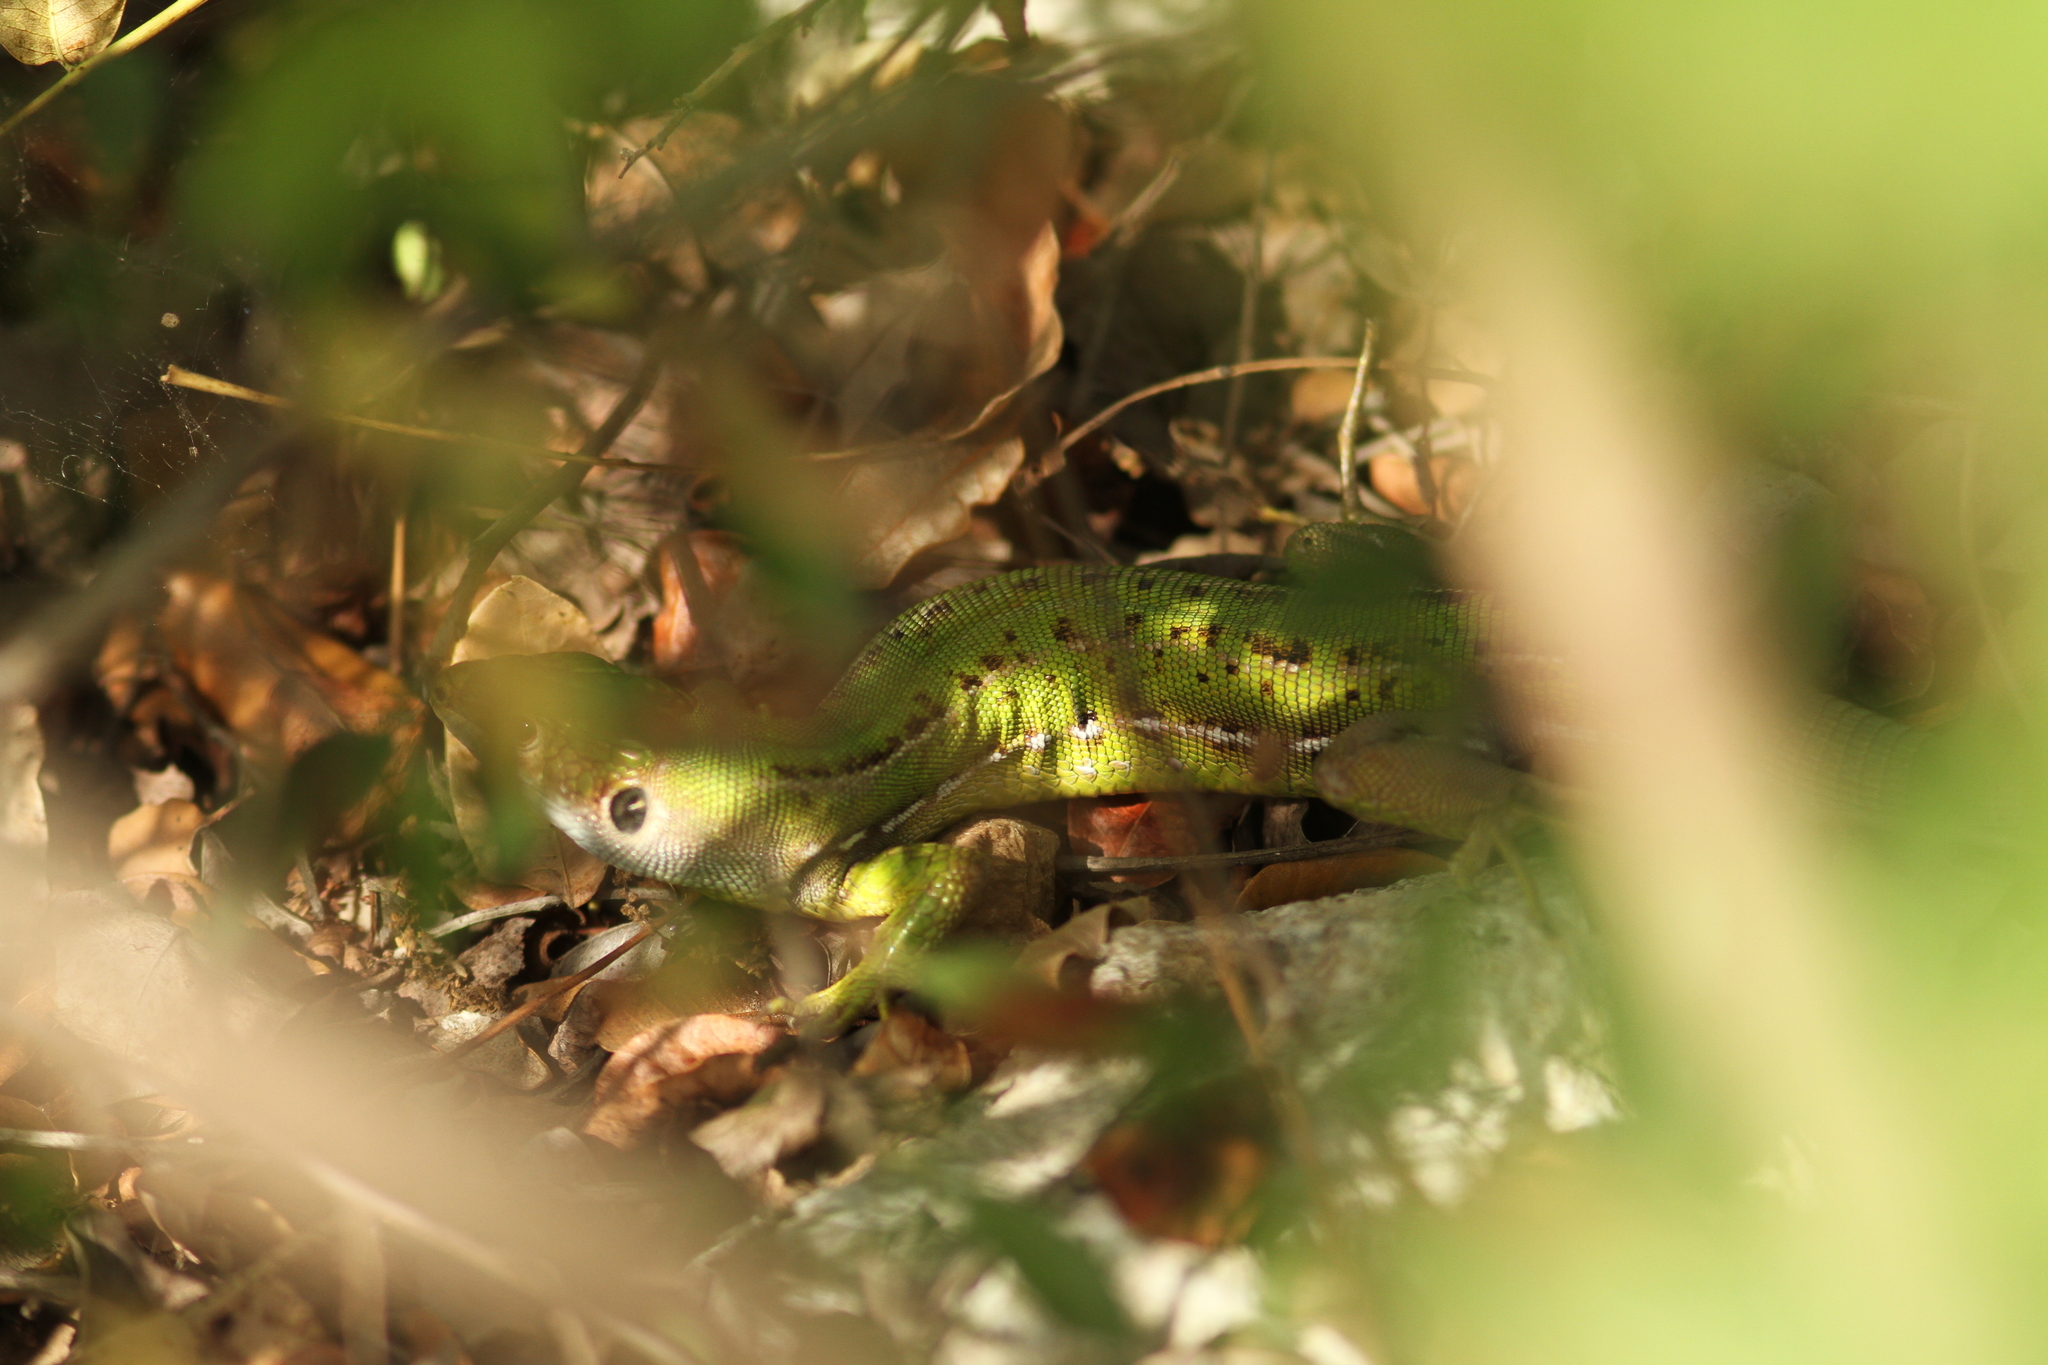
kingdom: Animalia
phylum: Chordata
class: Squamata
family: Lacertidae
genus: Lacerta
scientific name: Lacerta bilineata
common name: Western green lizard
